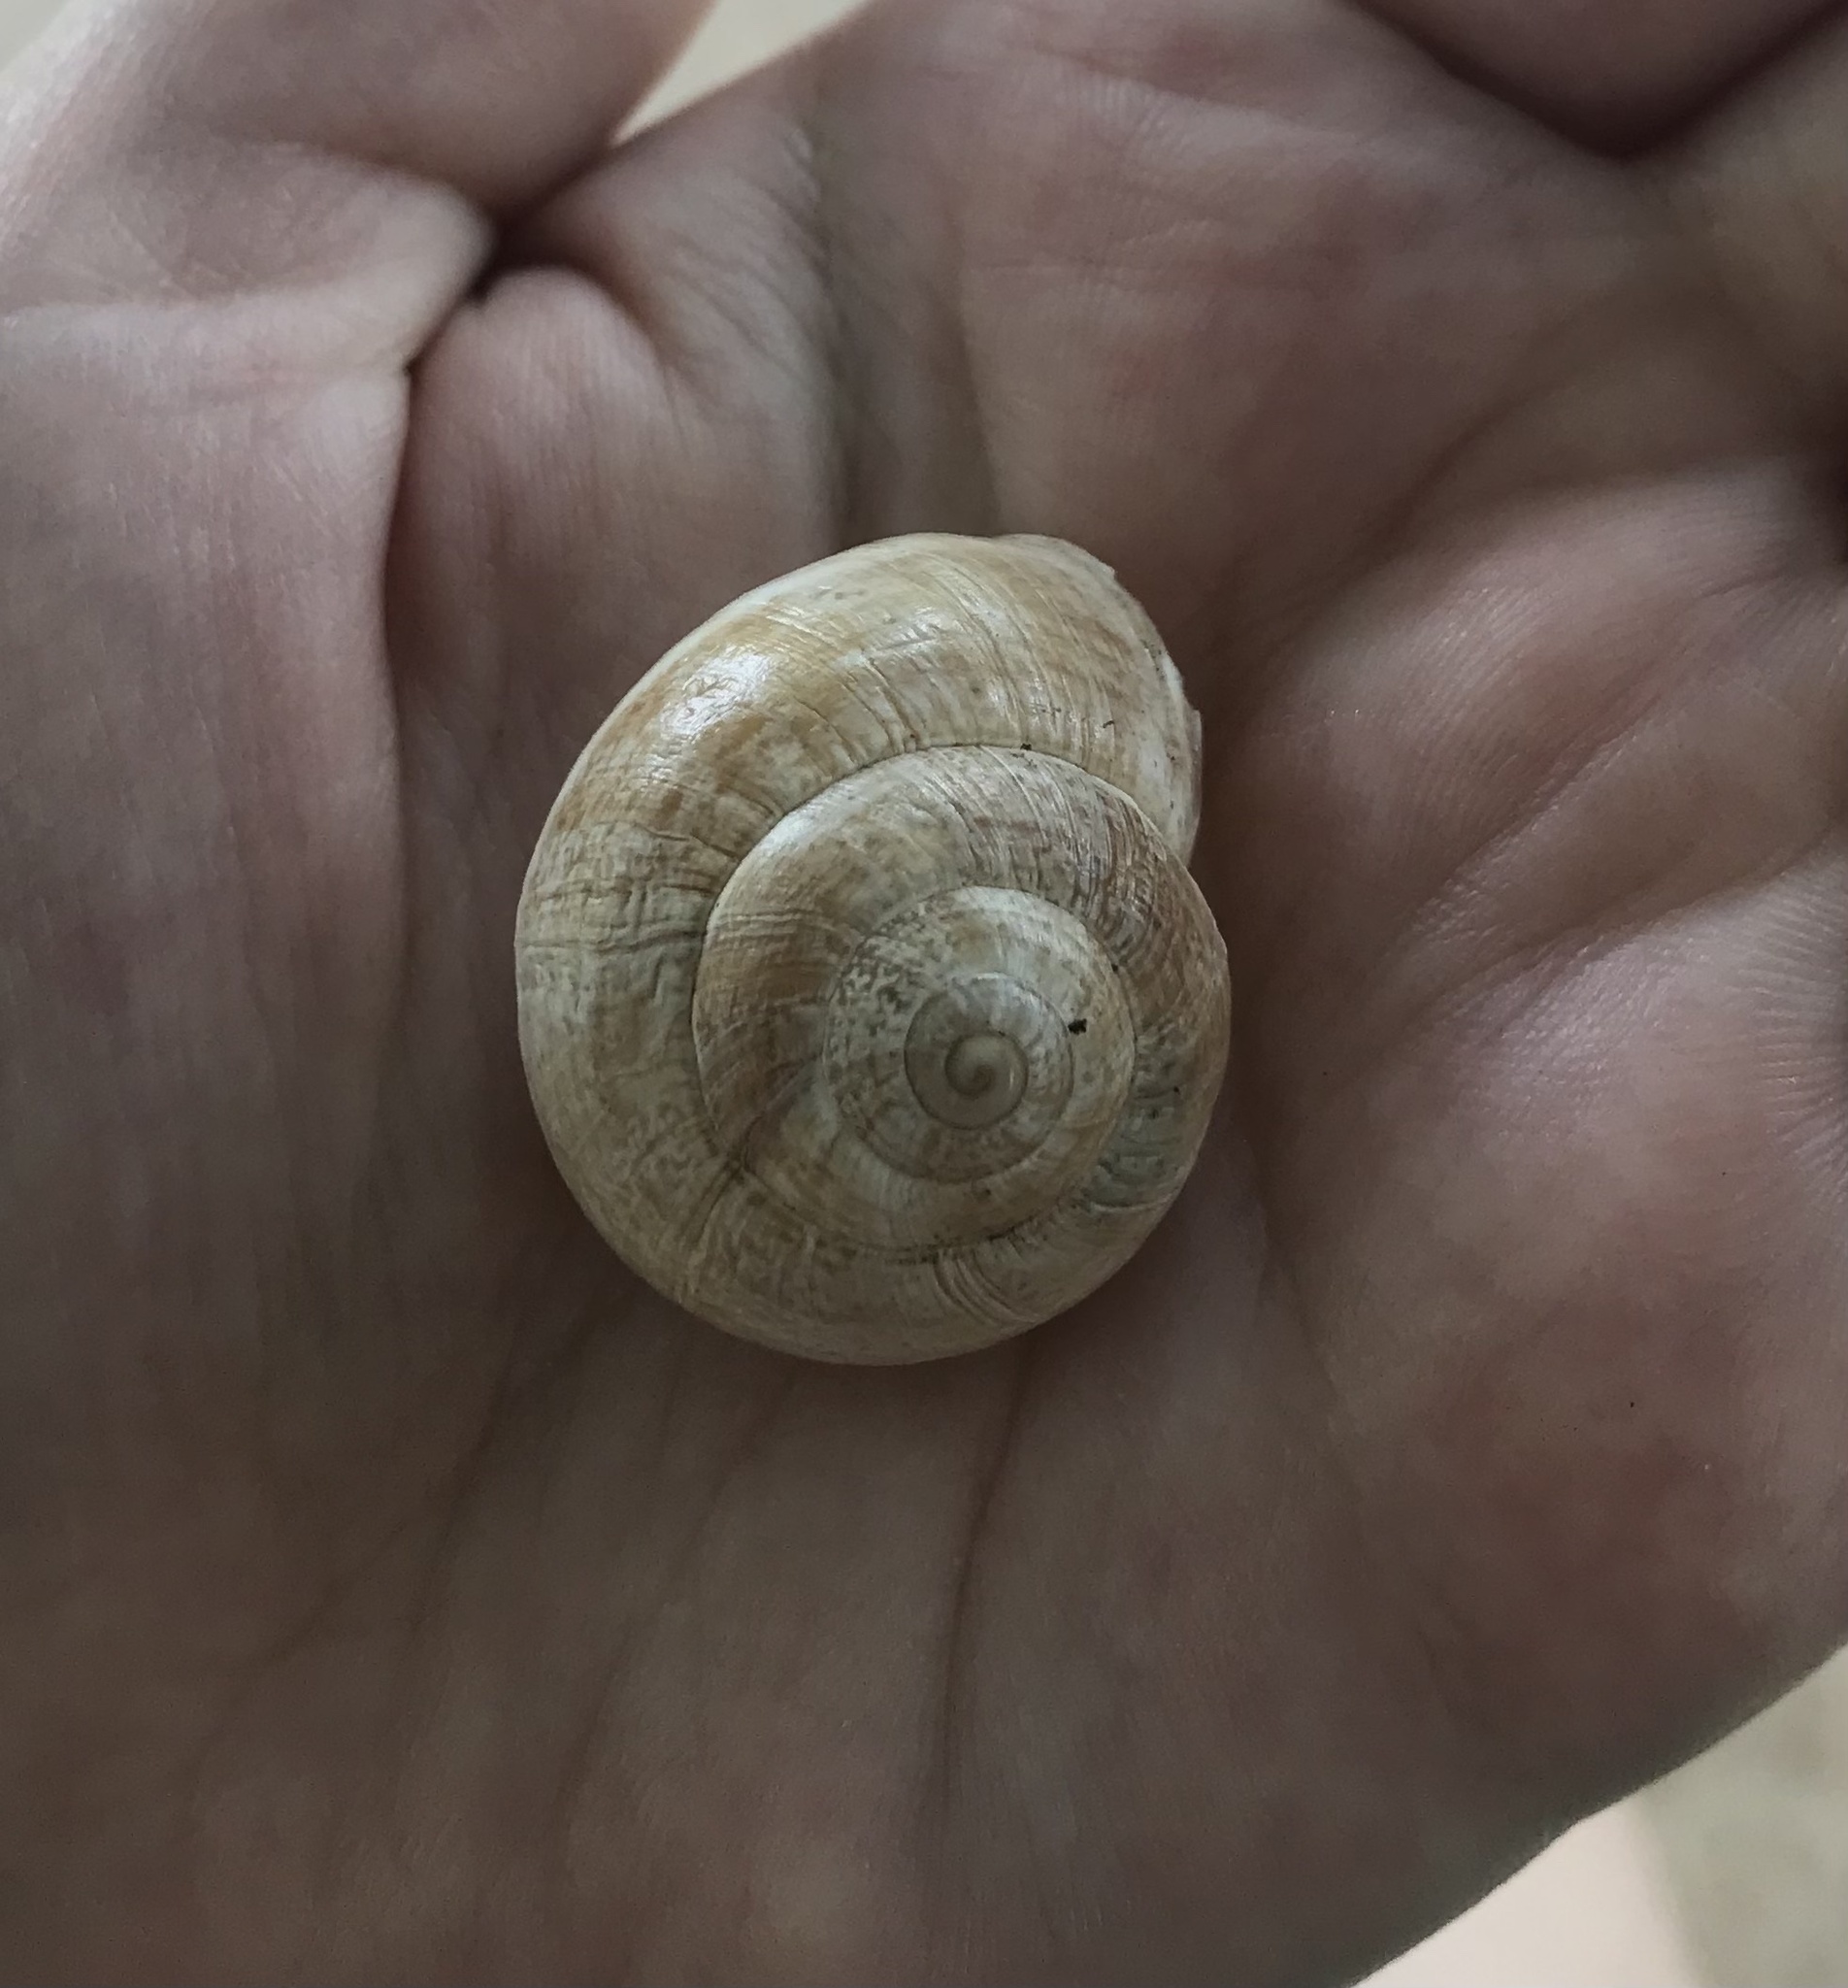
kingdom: Animalia
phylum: Mollusca
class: Gastropoda
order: Stylommatophora
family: Helicidae
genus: Otala
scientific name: Otala lactea
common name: Milk snail
